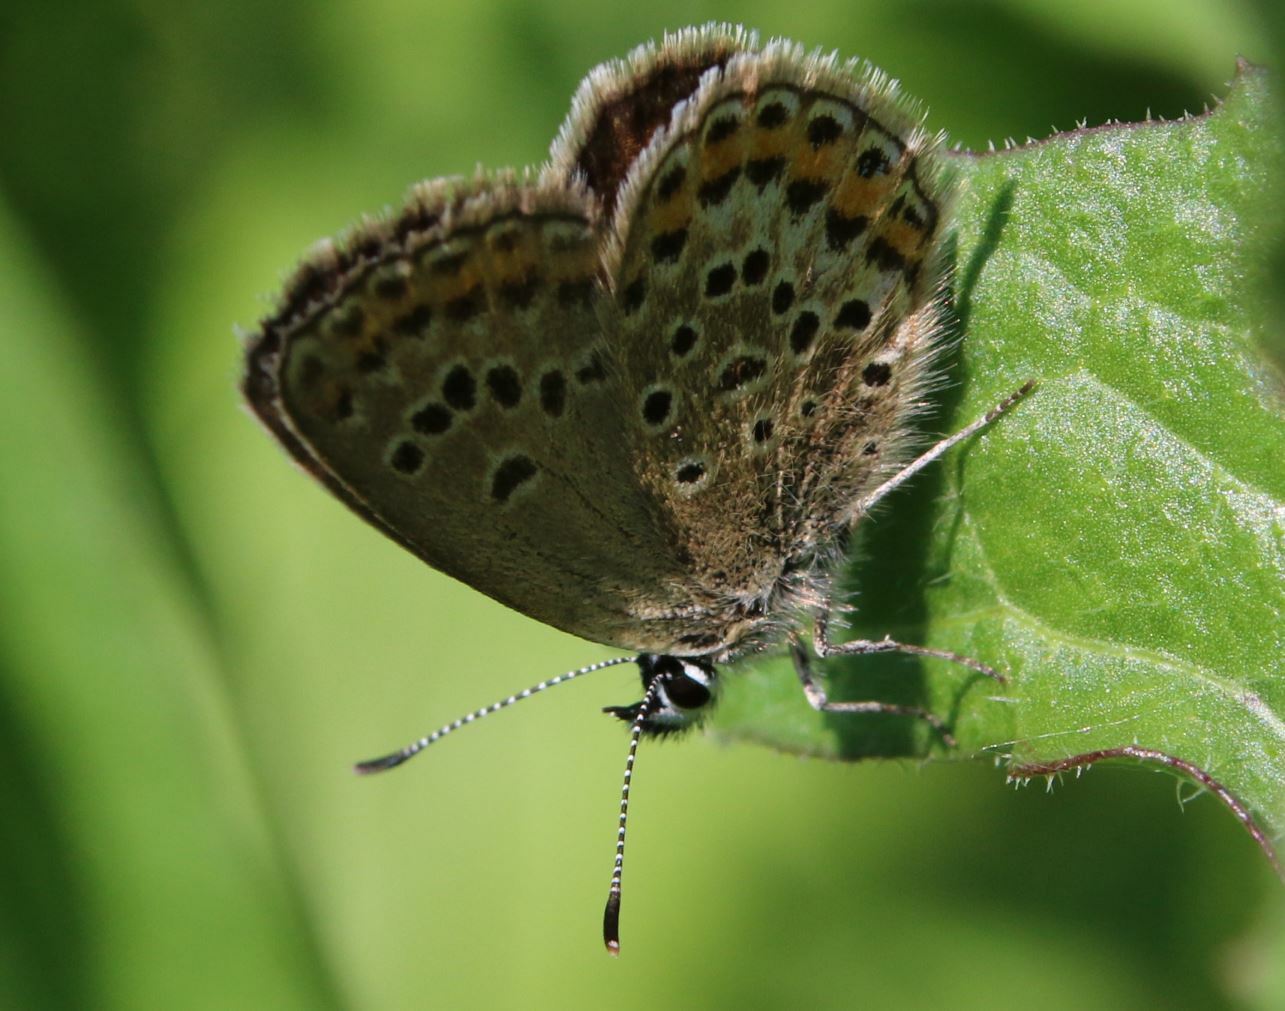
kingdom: Animalia
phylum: Arthropoda
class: Insecta
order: Lepidoptera
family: Lycaenidae
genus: Plebejus
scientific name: Plebejus argus
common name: Silver-studded blue
